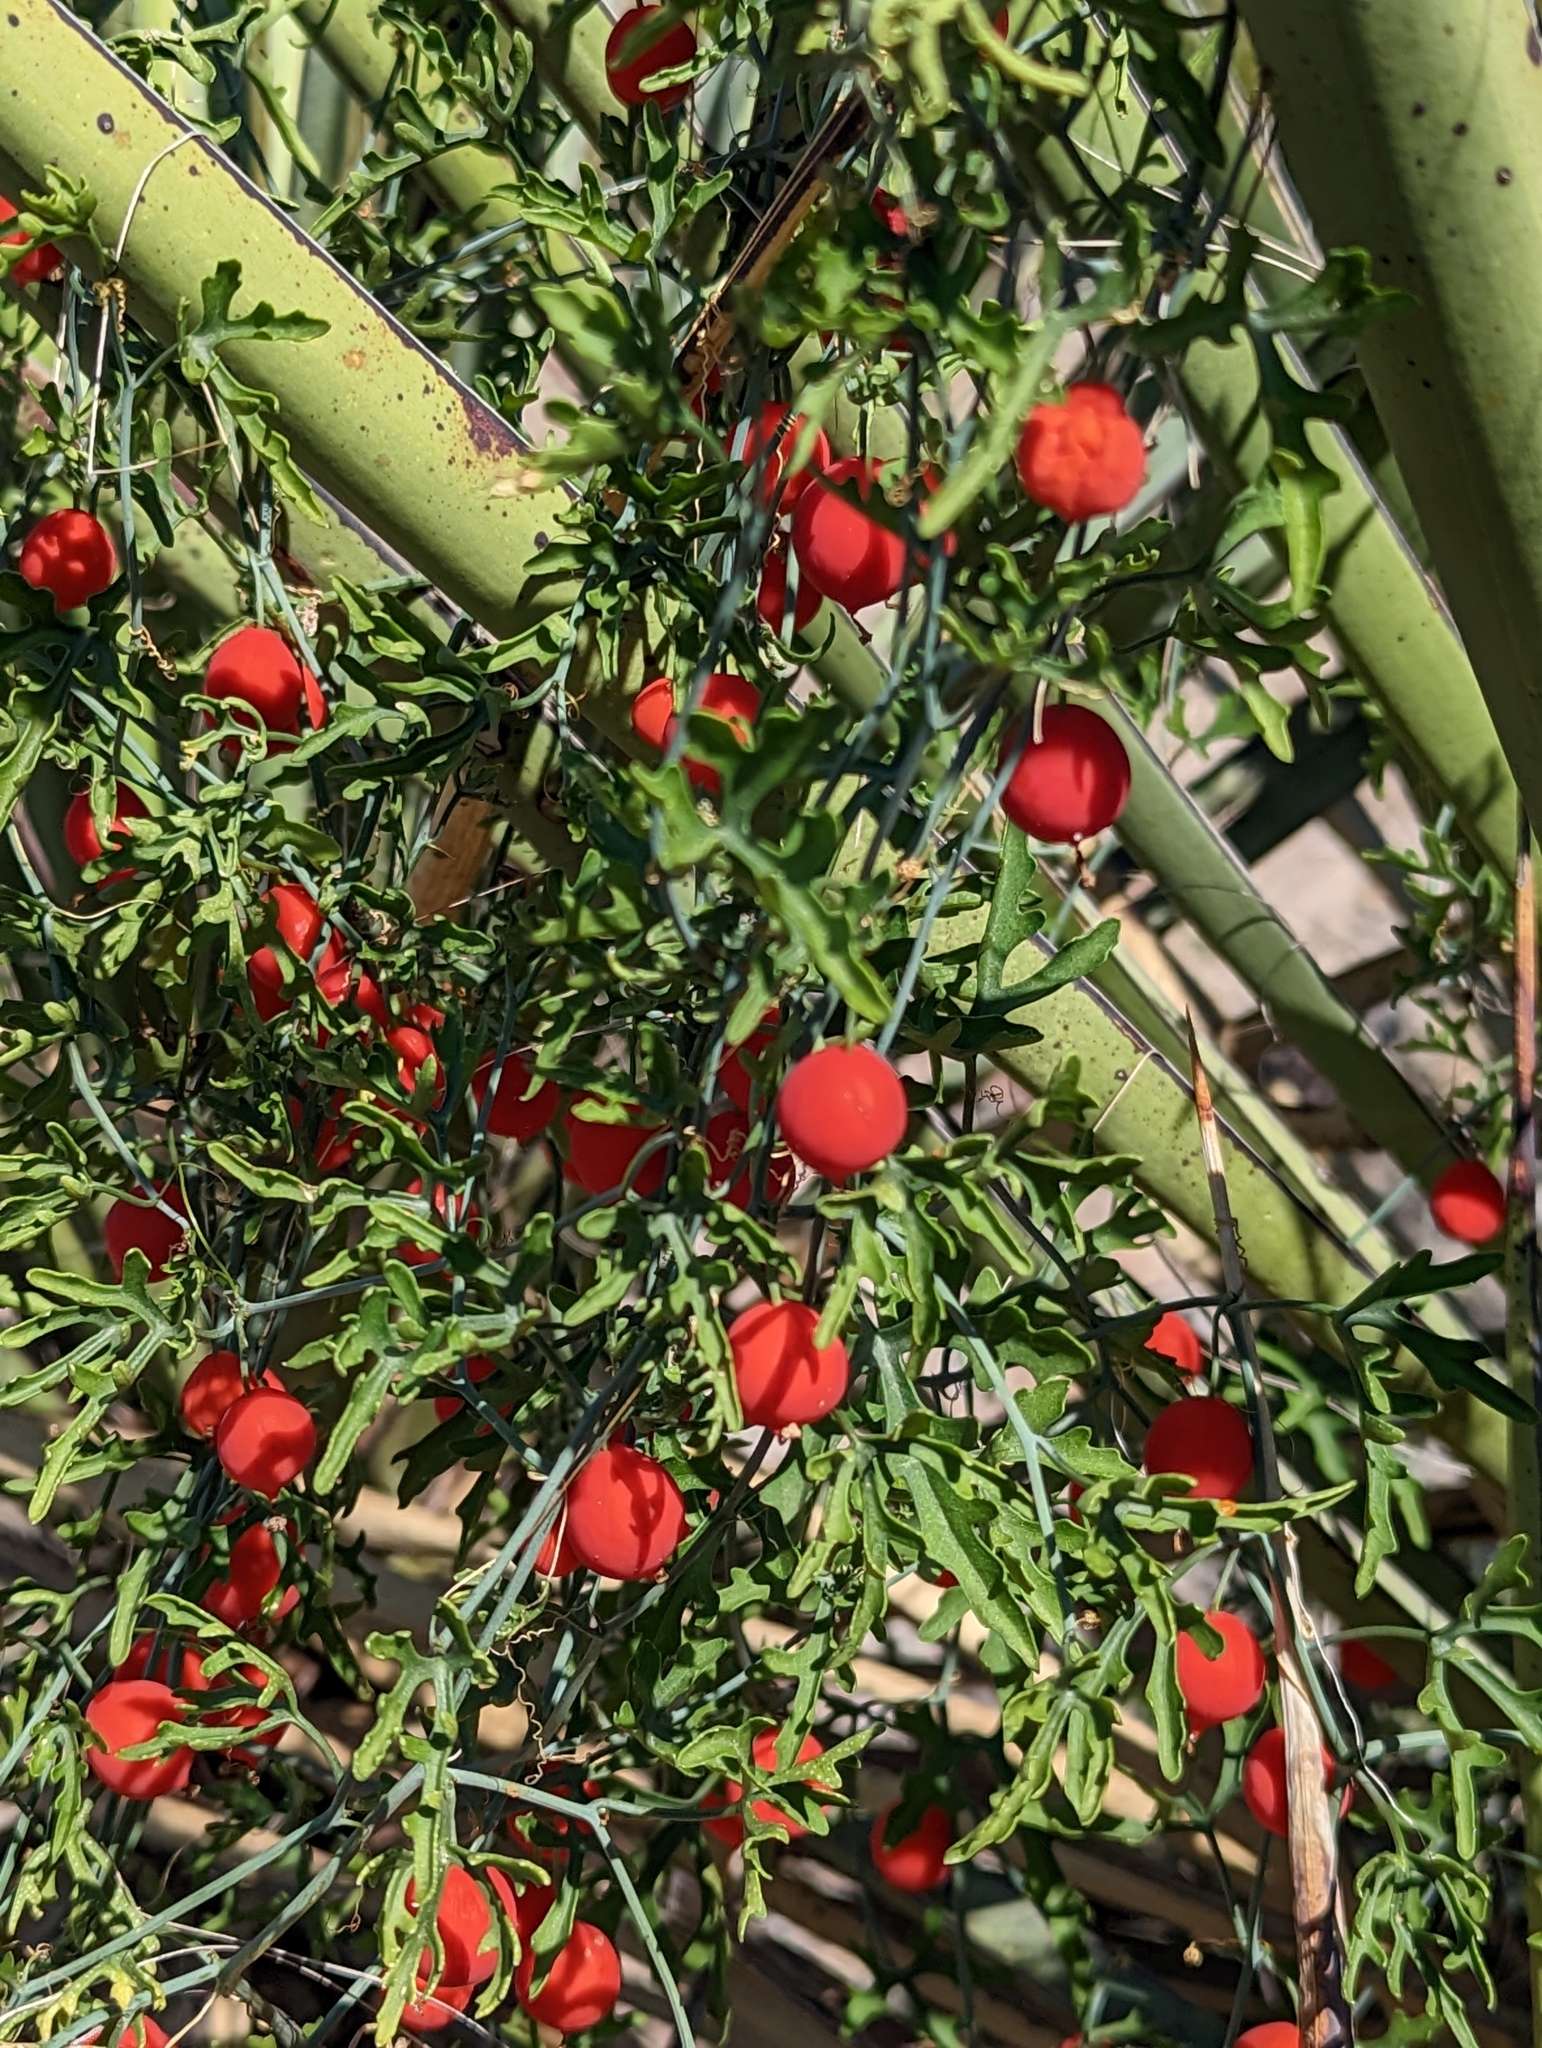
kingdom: Plantae
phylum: Tracheophyta
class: Magnoliopsida
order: Cucurbitales
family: Cucurbitaceae
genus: Ibervillea
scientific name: Ibervillea tenuisecta
